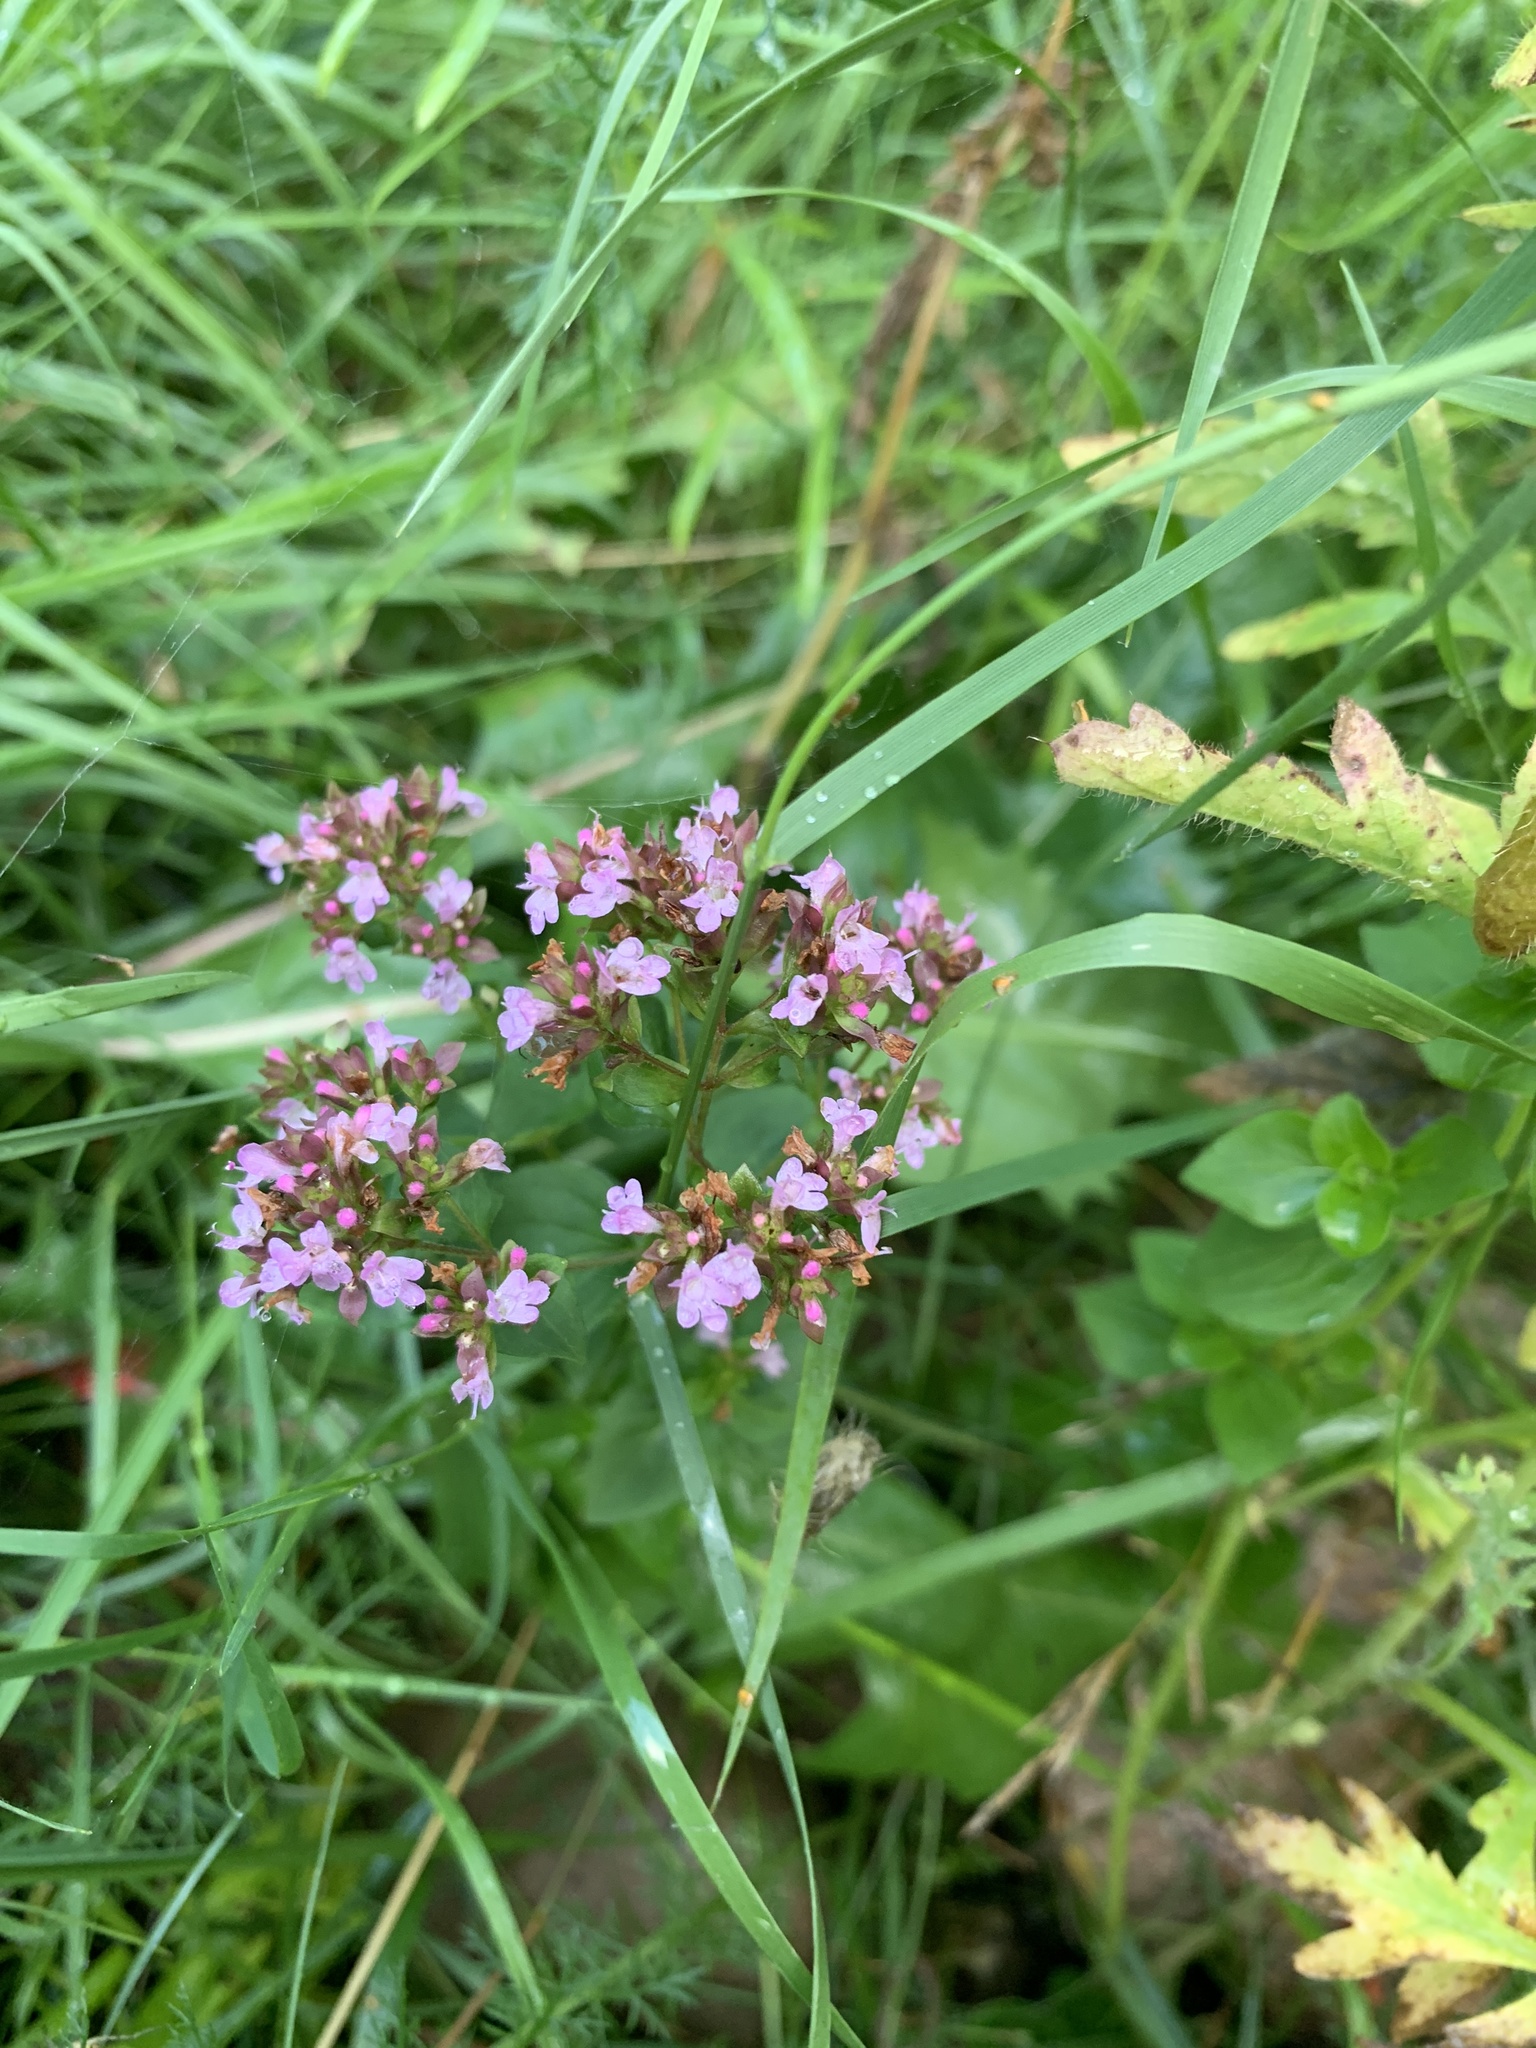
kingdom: Plantae
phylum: Tracheophyta
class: Magnoliopsida
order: Lamiales
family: Lamiaceae
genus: Origanum
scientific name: Origanum vulgare
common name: Wild marjoram
